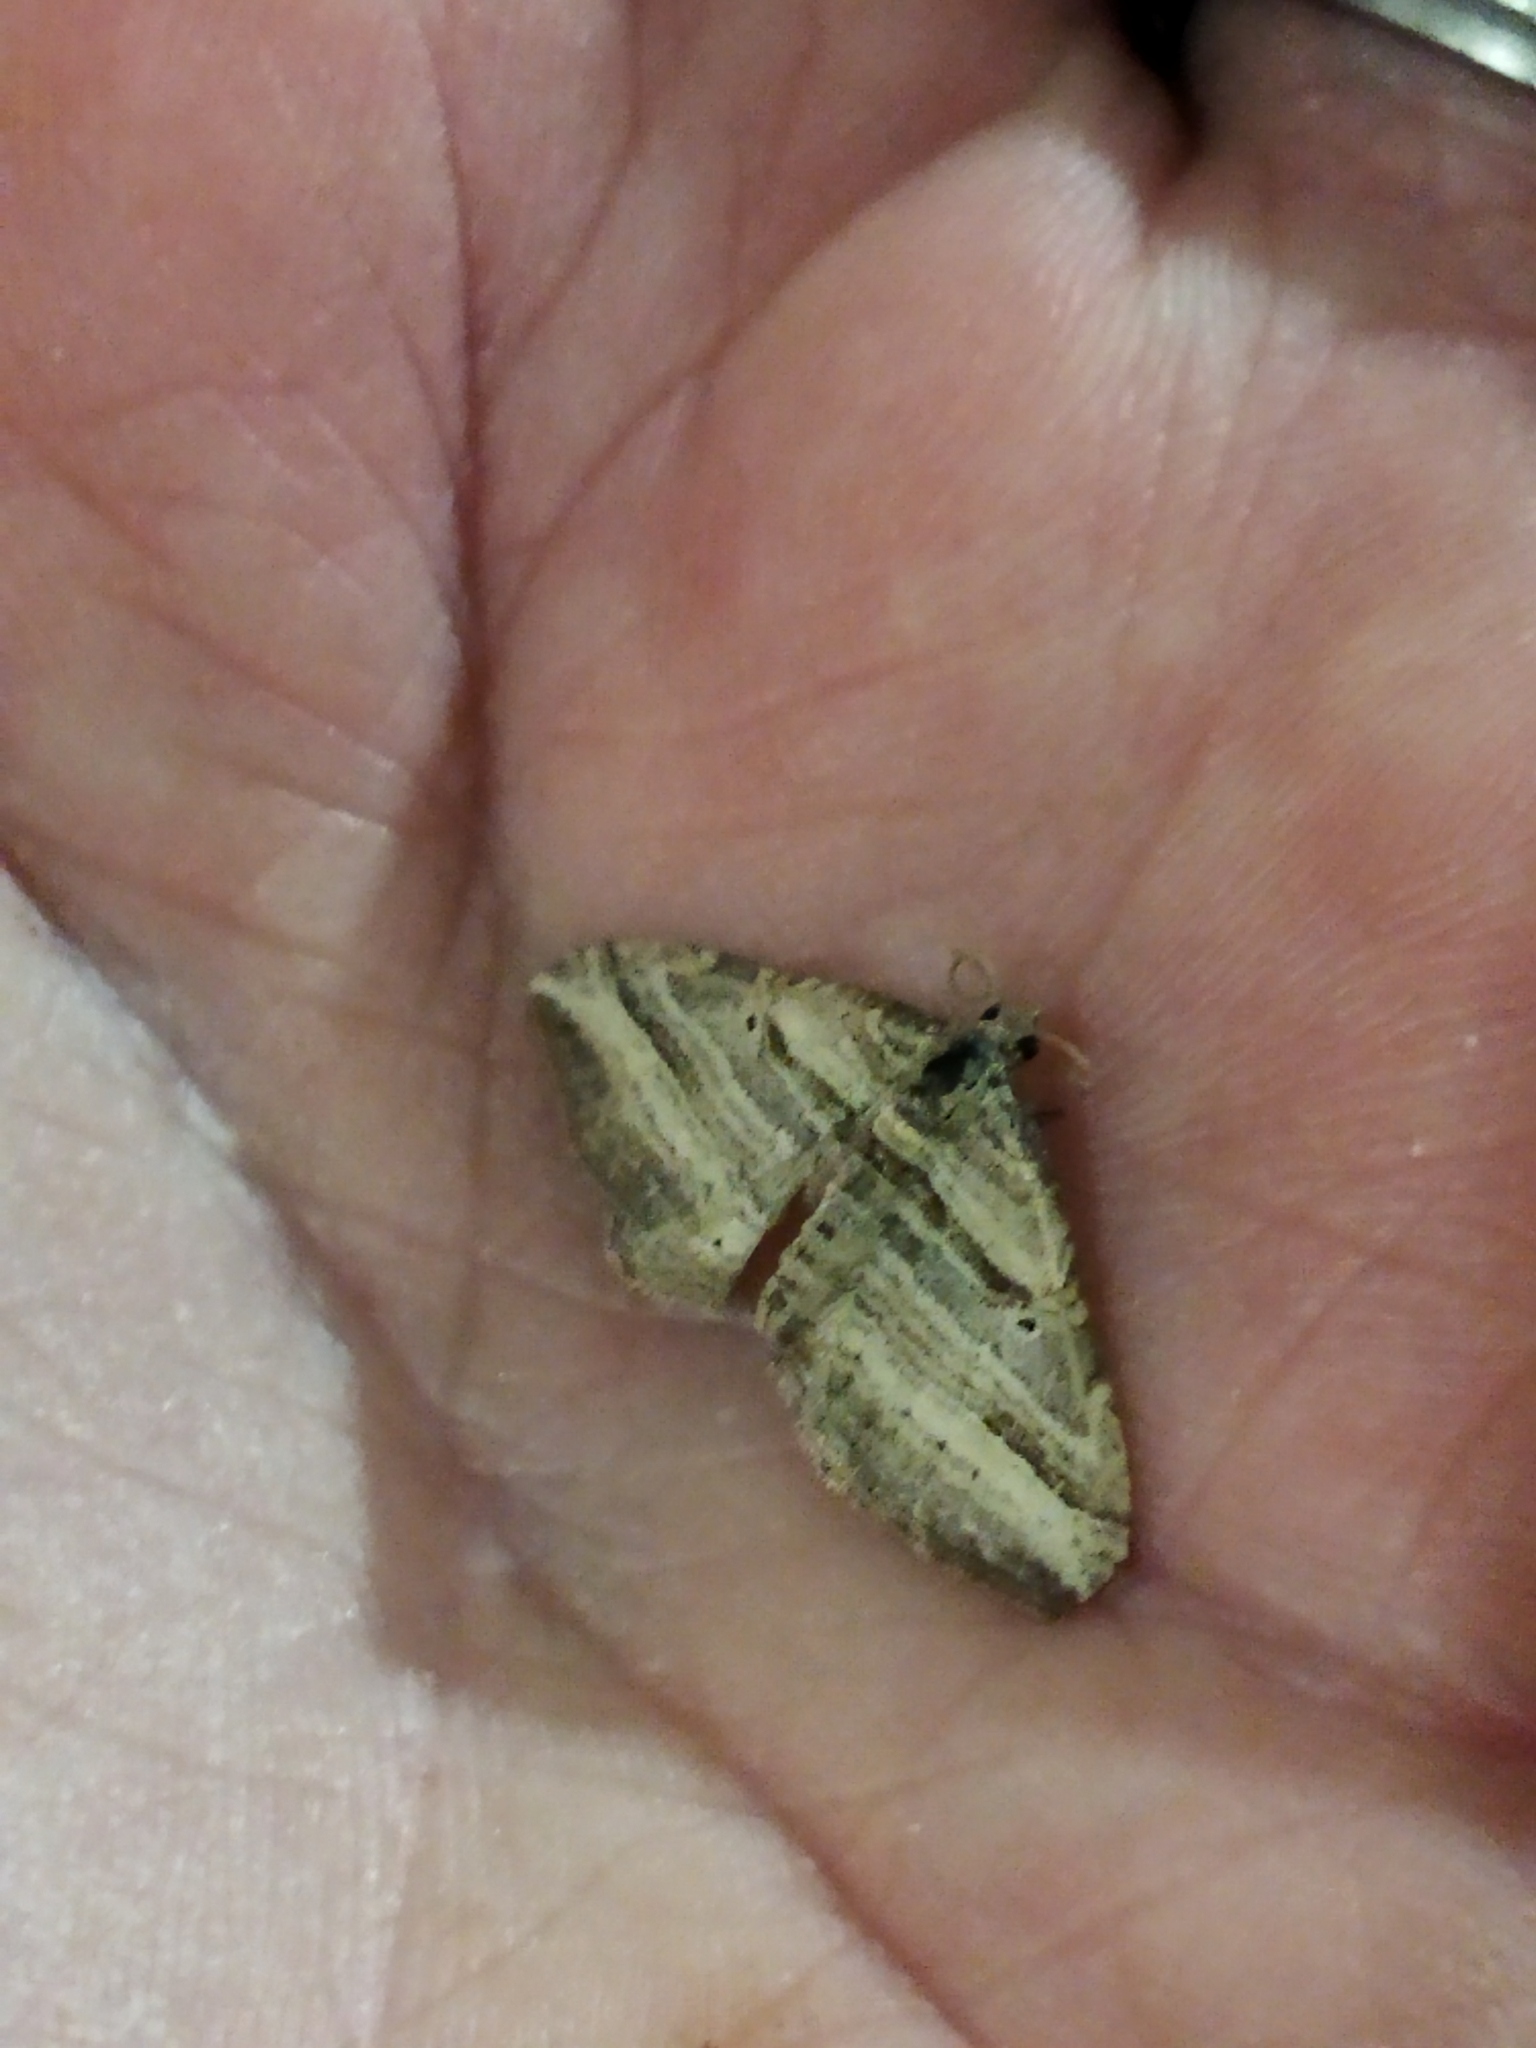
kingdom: Animalia
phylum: Arthropoda
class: Insecta
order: Lepidoptera
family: Geometridae
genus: Costaconvexa
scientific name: Costaconvexa polygrammata
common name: Many-lined
